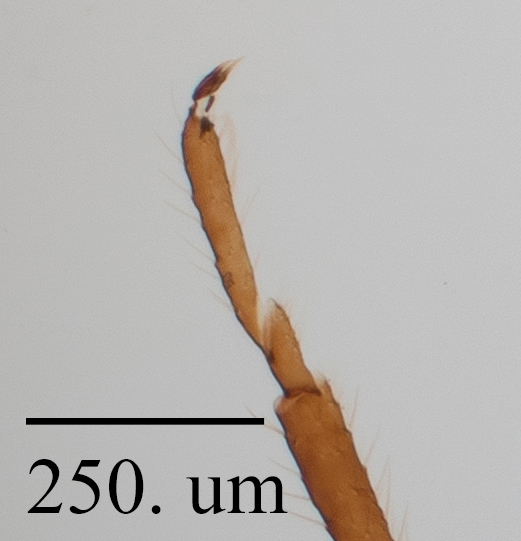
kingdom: Animalia
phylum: Arthropoda
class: Insecta
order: Hemiptera
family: Aphididae
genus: Cinara
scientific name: Cinara edulis
